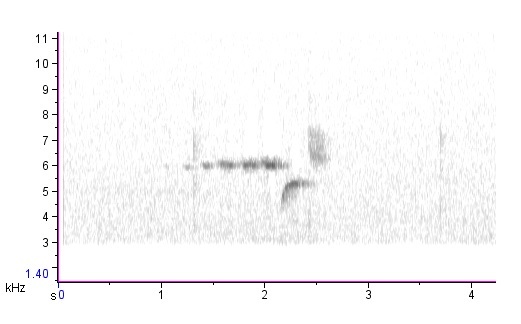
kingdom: Animalia
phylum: Chordata
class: Aves
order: Passeriformes
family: Parulidae
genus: Setophaga
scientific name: Setophaga virens
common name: Black-throated green warbler
